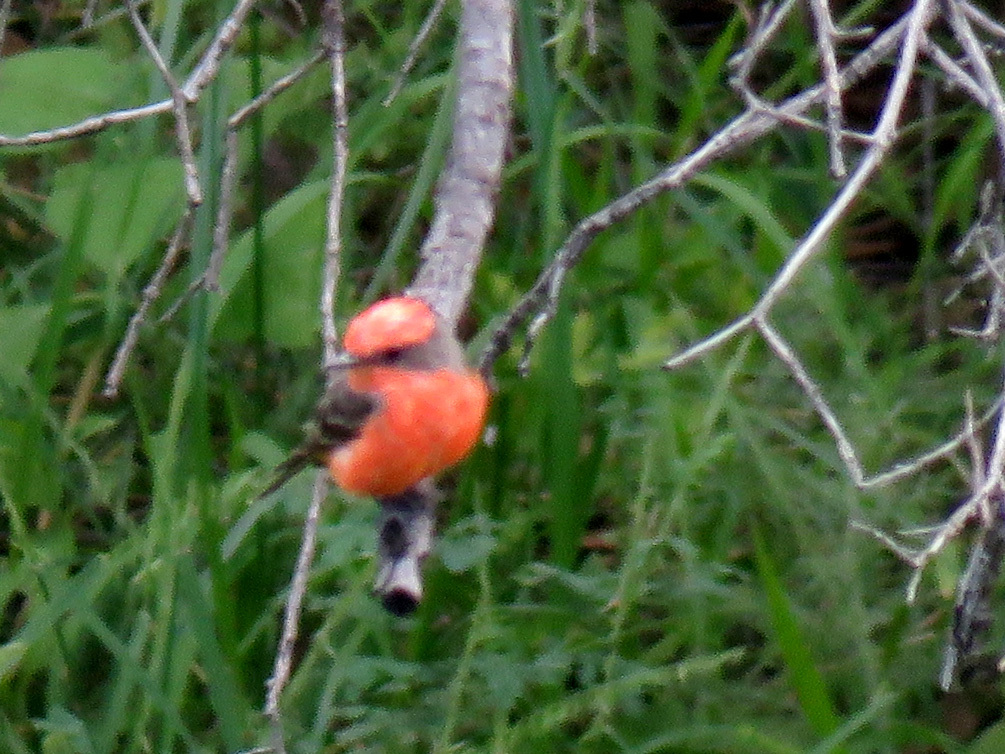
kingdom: Animalia
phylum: Chordata
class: Aves
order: Passeriformes
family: Tyrannidae
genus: Pyrocephalus
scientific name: Pyrocephalus rubinus
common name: Vermilion flycatcher
